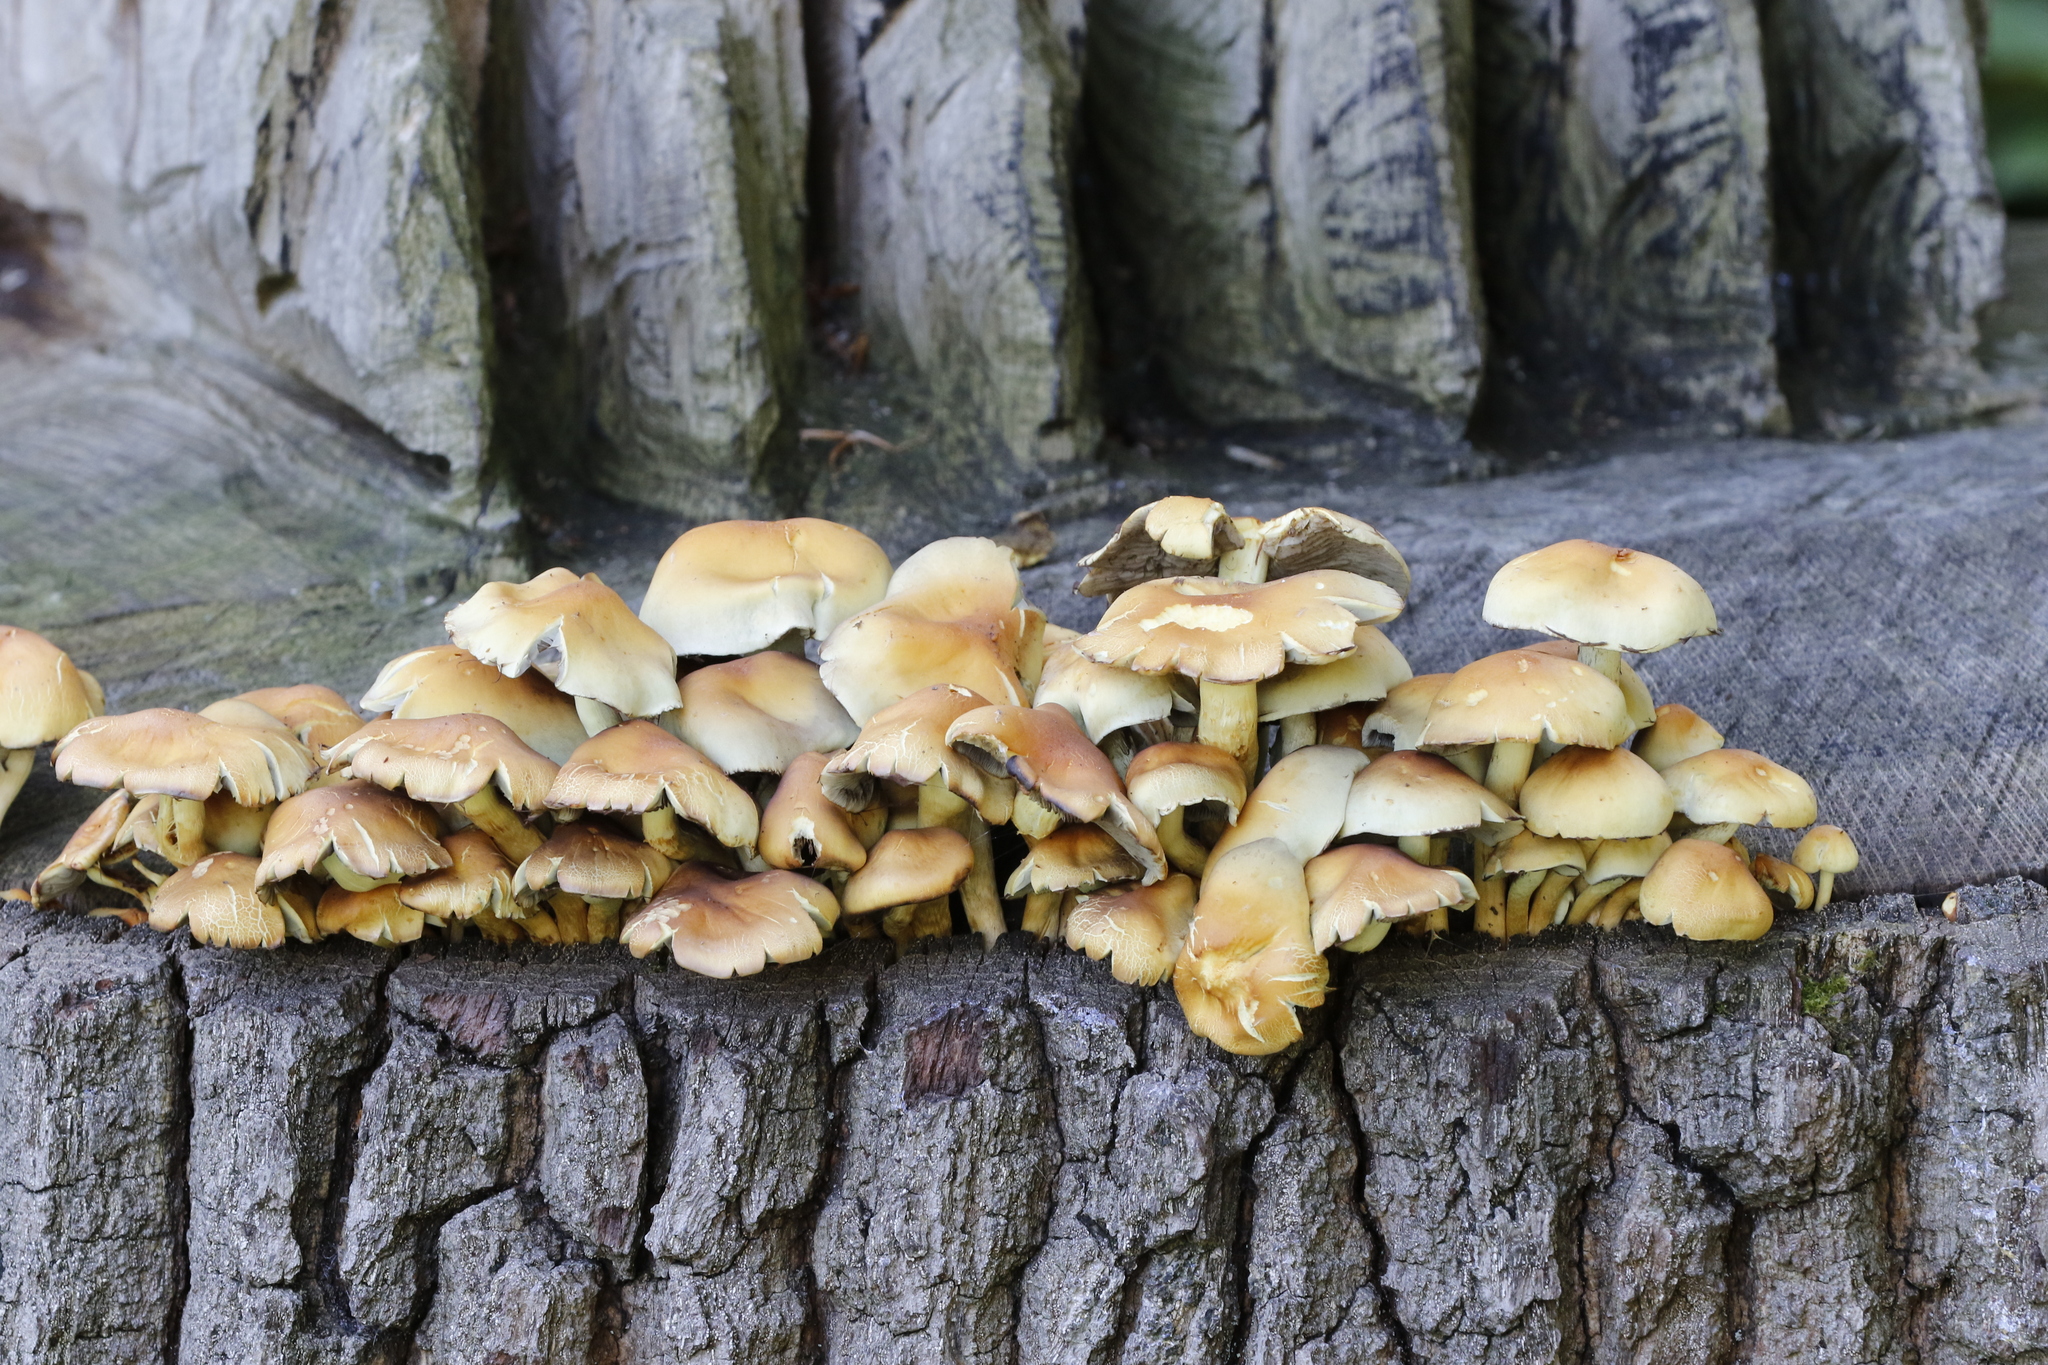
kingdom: Fungi
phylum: Basidiomycota
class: Agaricomycetes
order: Agaricales
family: Strophariaceae
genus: Hypholoma
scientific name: Hypholoma fasciculare
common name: Sulphur tuft
